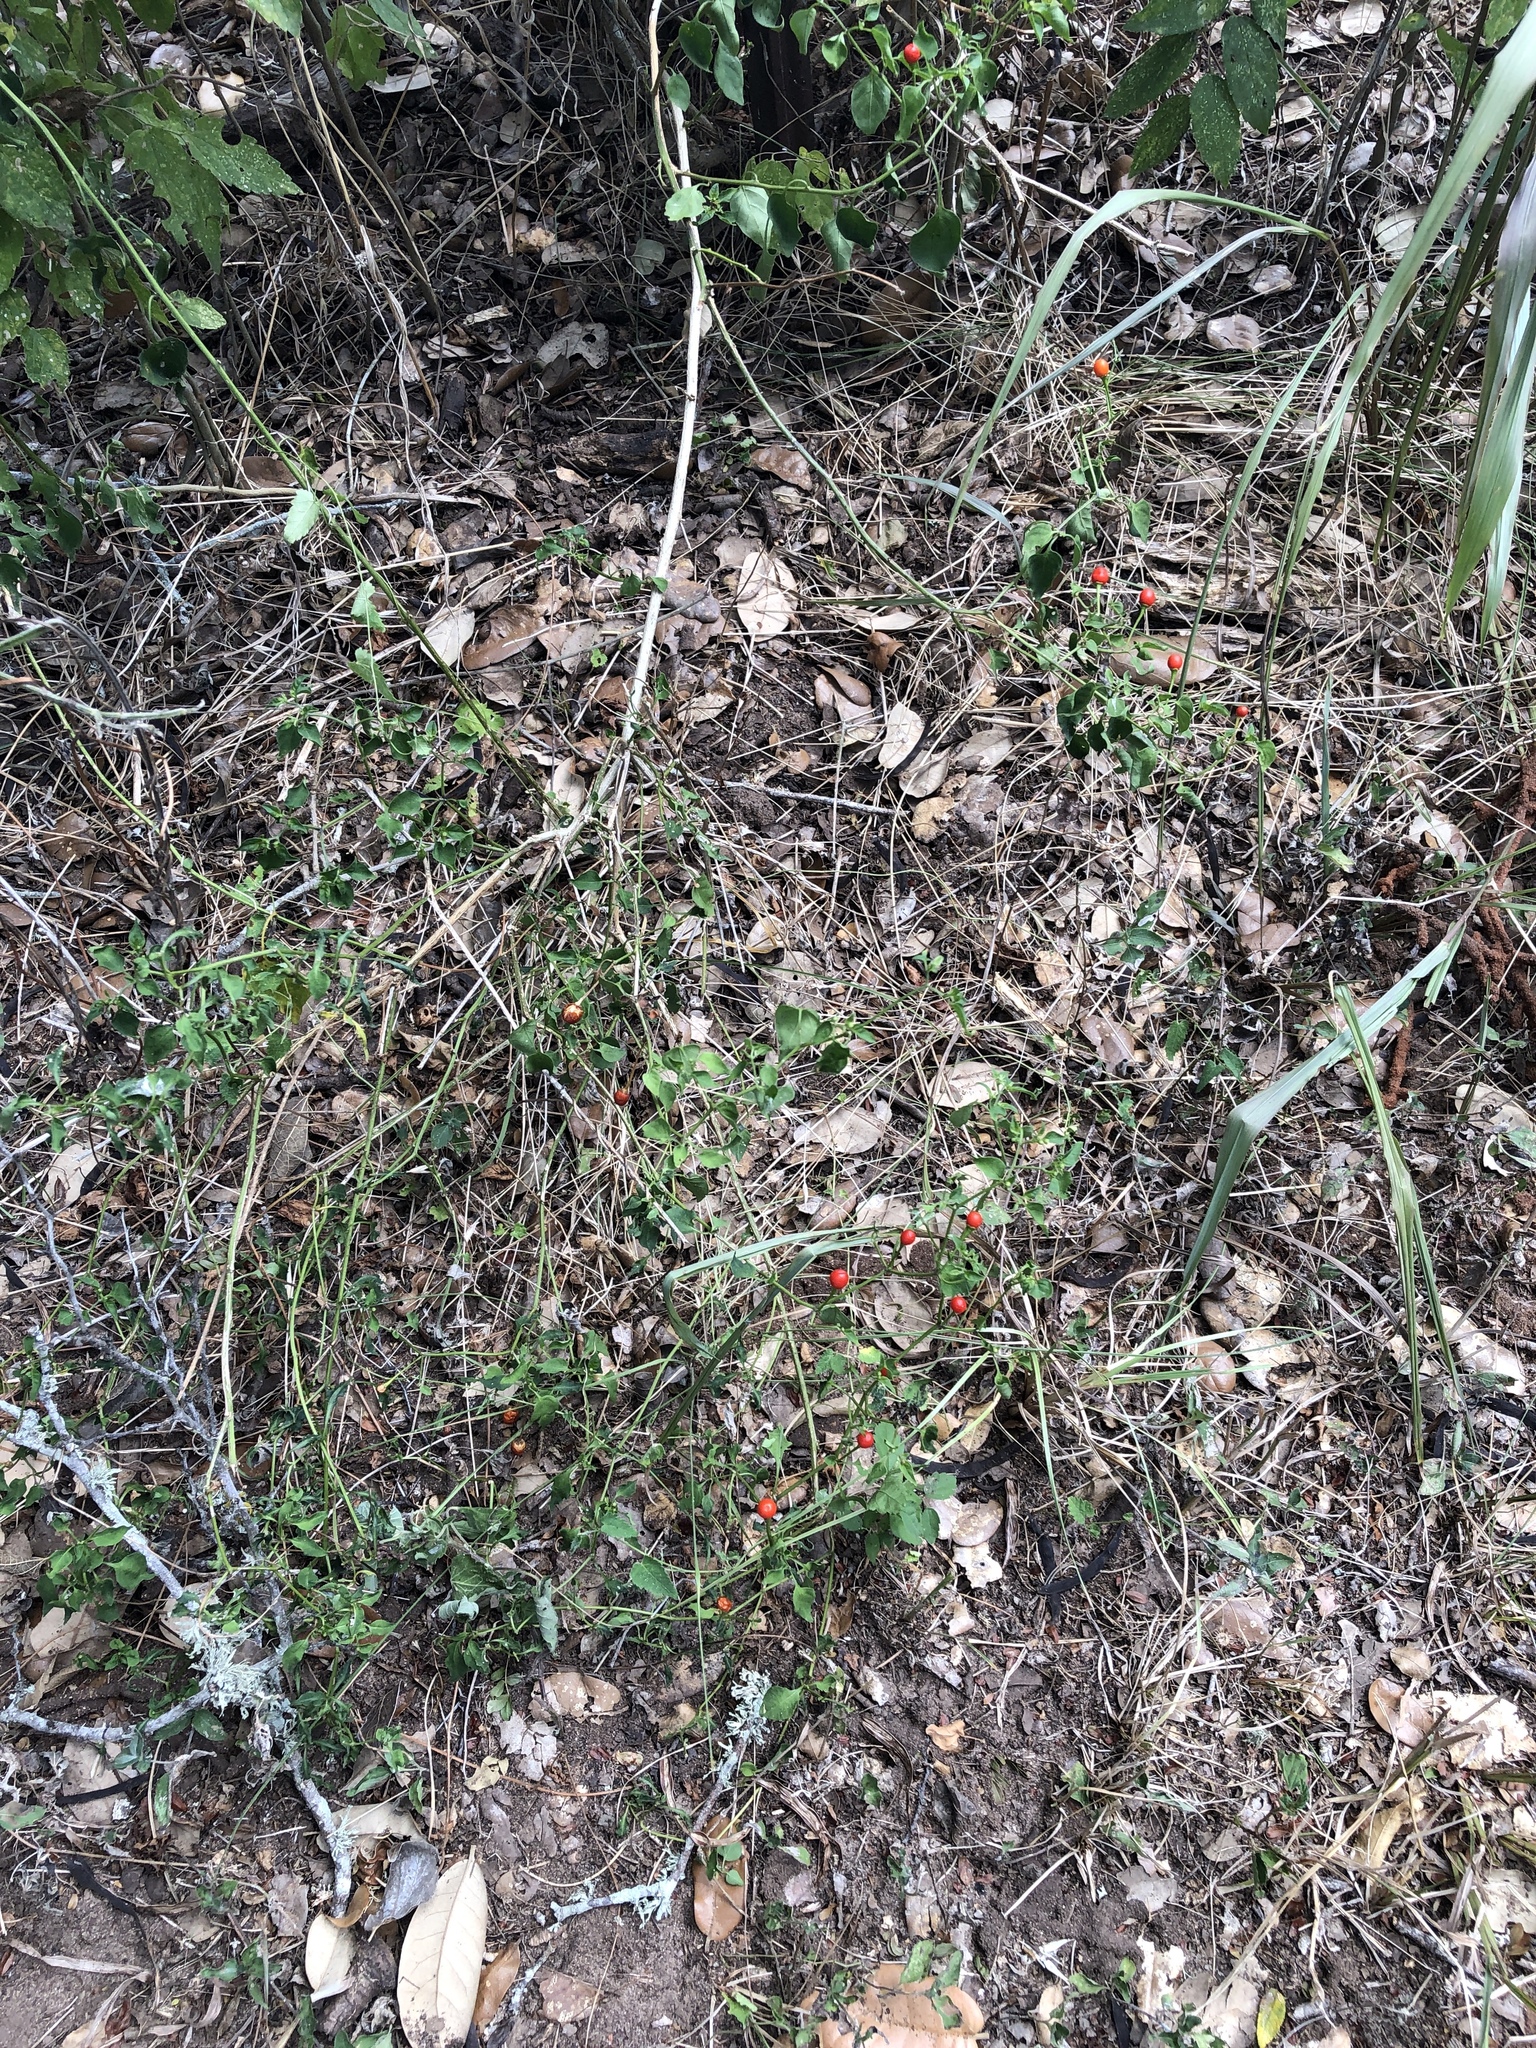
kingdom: Plantae
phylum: Tracheophyta
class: Magnoliopsida
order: Solanales
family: Solanaceae
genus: Capsicum
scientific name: Capsicum annuum
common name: Sweet pepper
